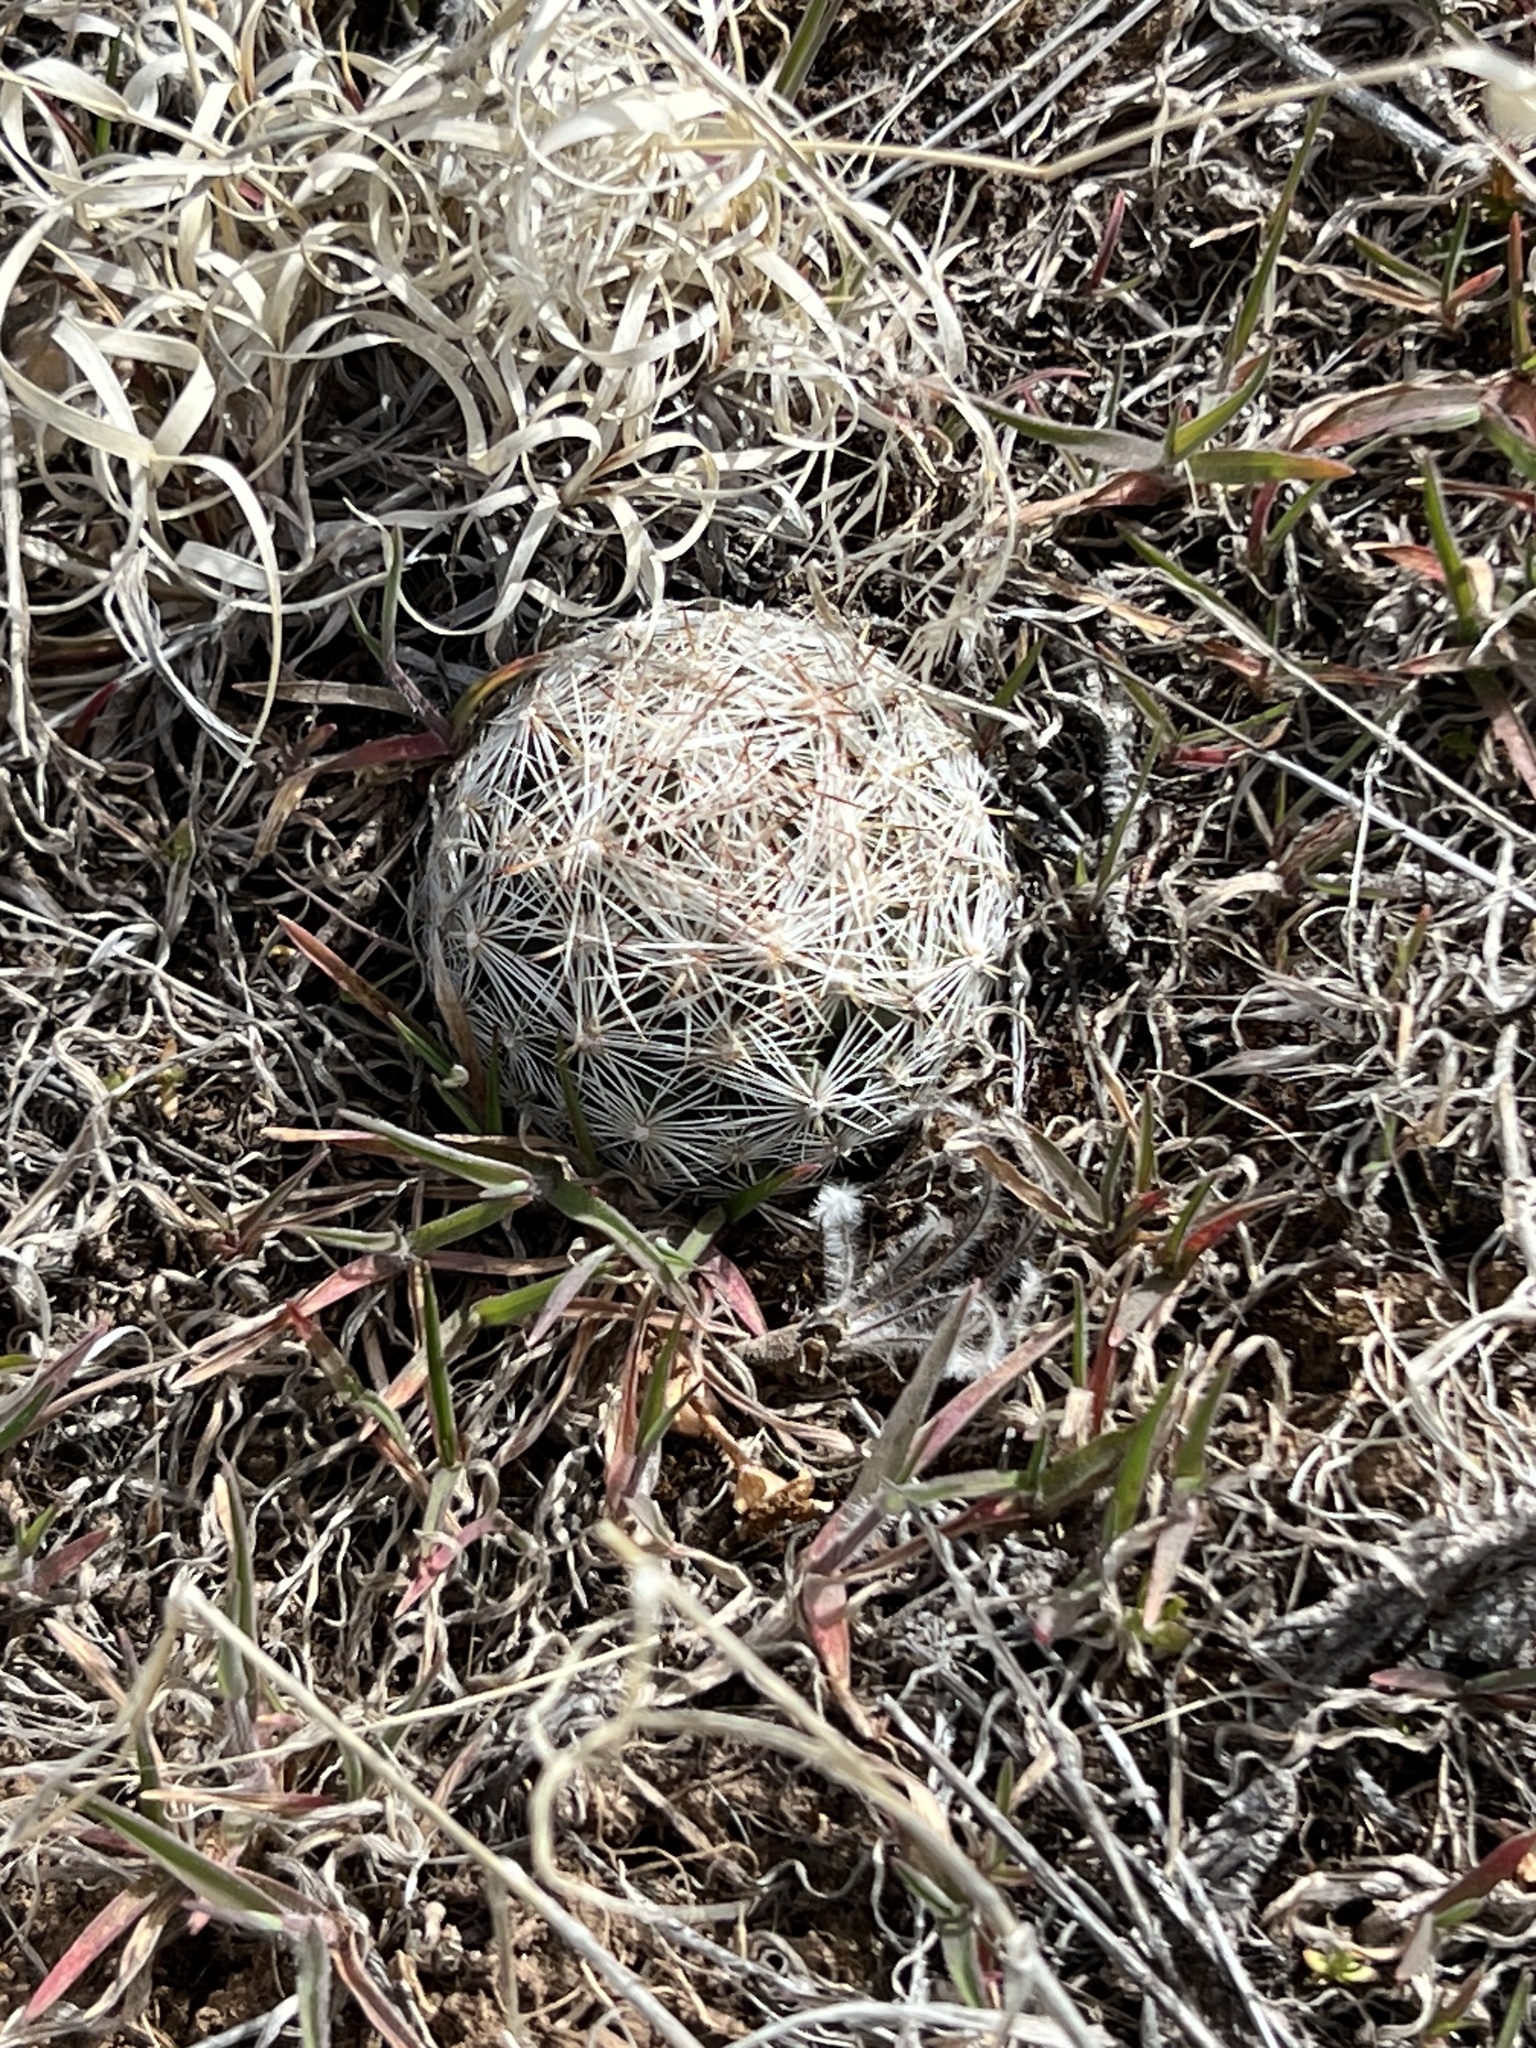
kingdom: Plantae
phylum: Tracheophyta
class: Magnoliopsida
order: Caryophyllales
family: Cactaceae
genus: Pelecyphora
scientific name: Pelecyphora vivipara
